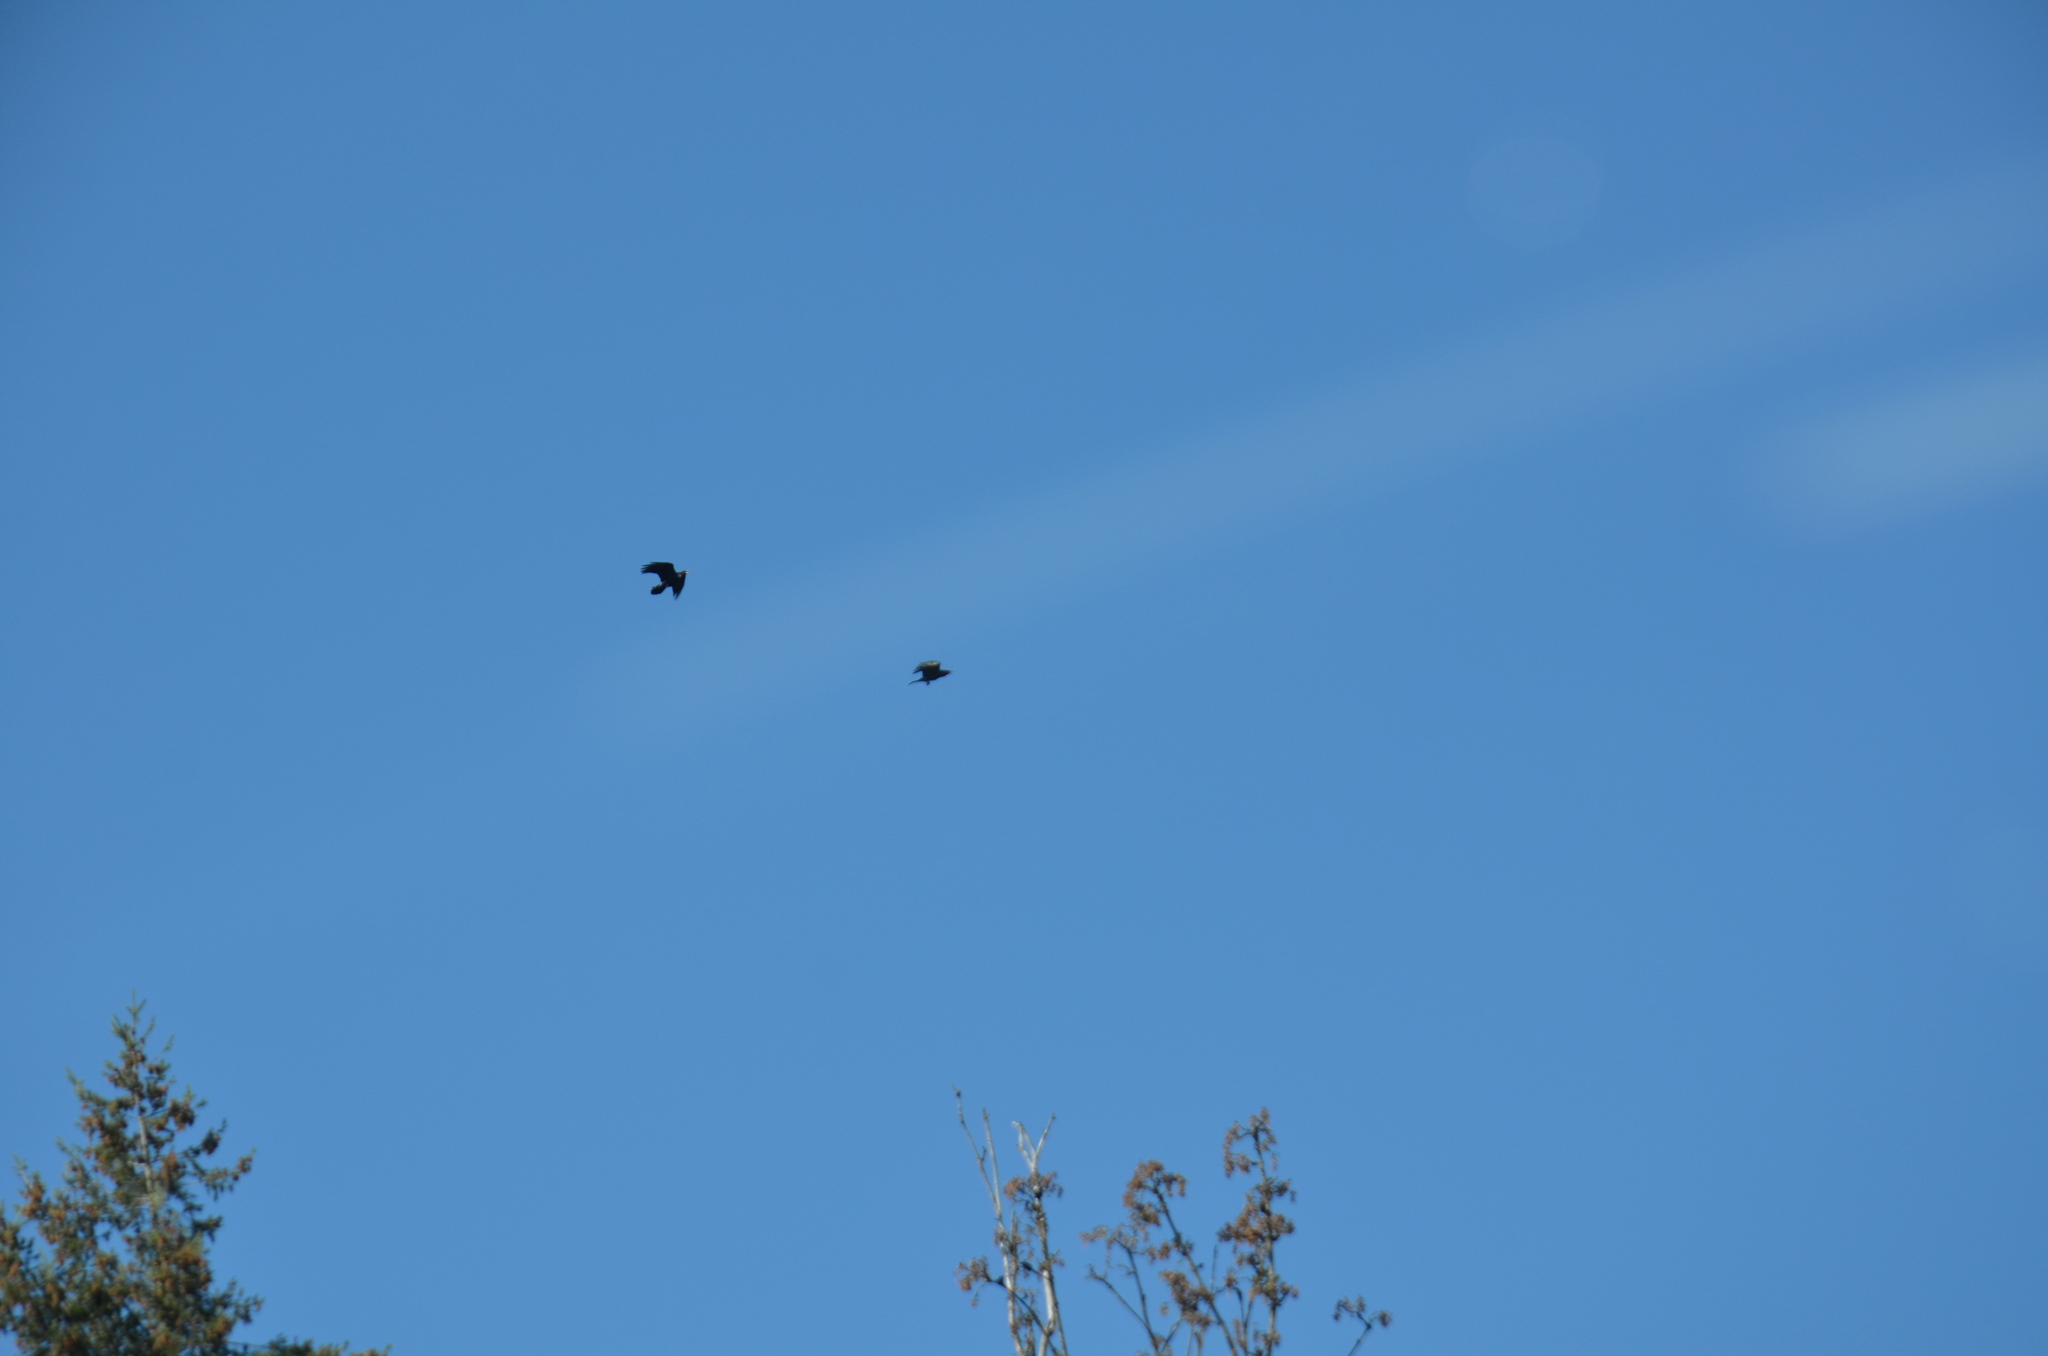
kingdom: Animalia
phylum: Chordata
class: Aves
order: Passeriformes
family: Corvidae
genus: Corvus
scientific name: Corvus brachyrhynchos
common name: American crow
